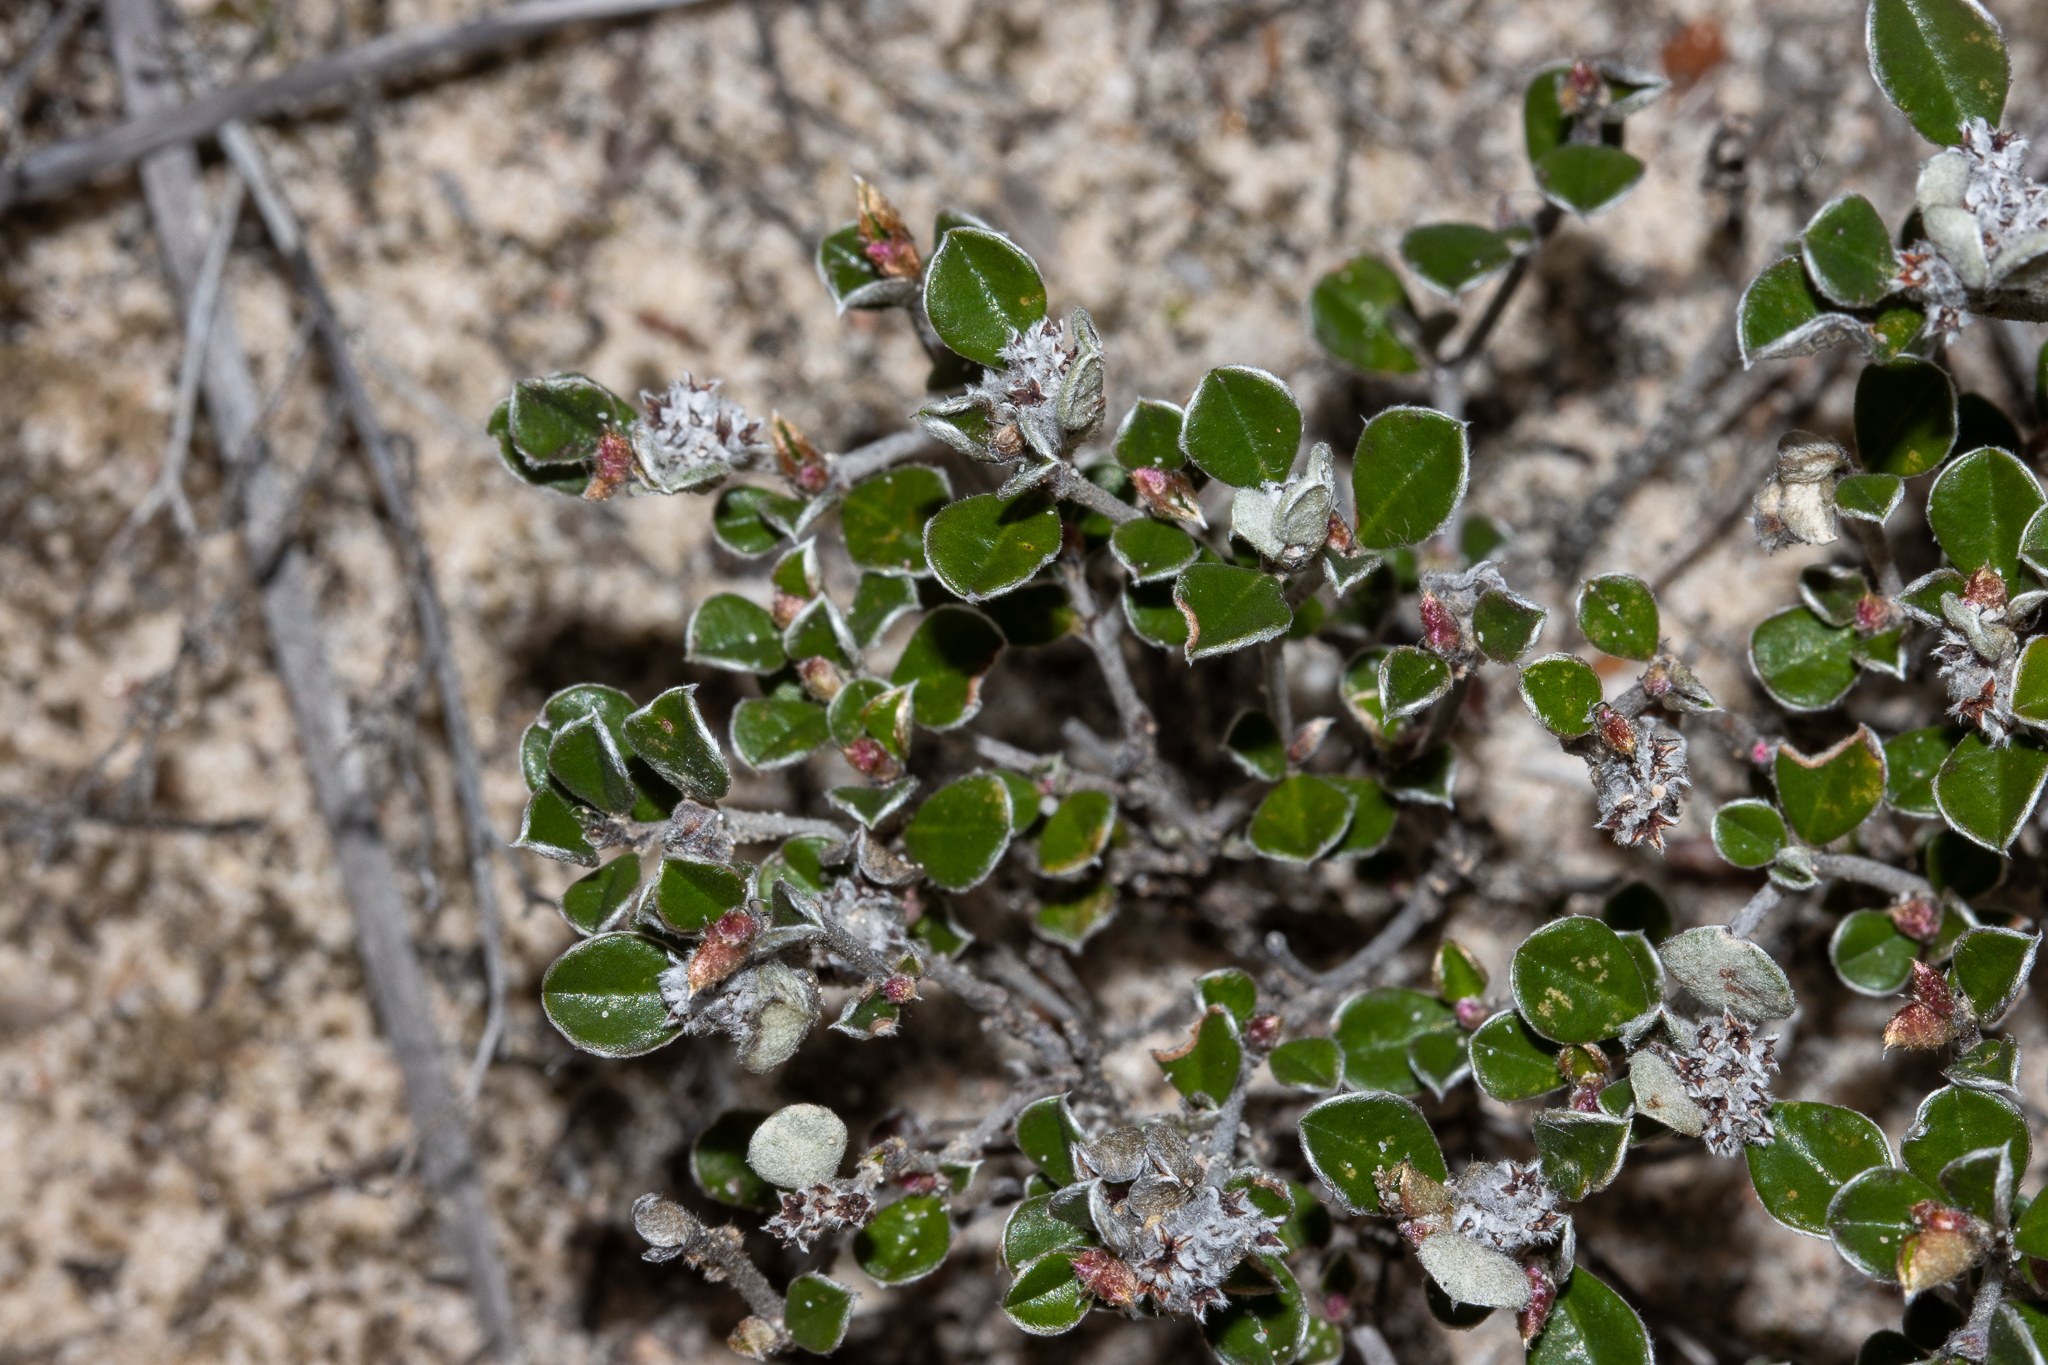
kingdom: Plantae
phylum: Tracheophyta
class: Magnoliopsida
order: Rosales
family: Rhamnaceae
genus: Cryptandra
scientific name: Cryptandra leucophracta
